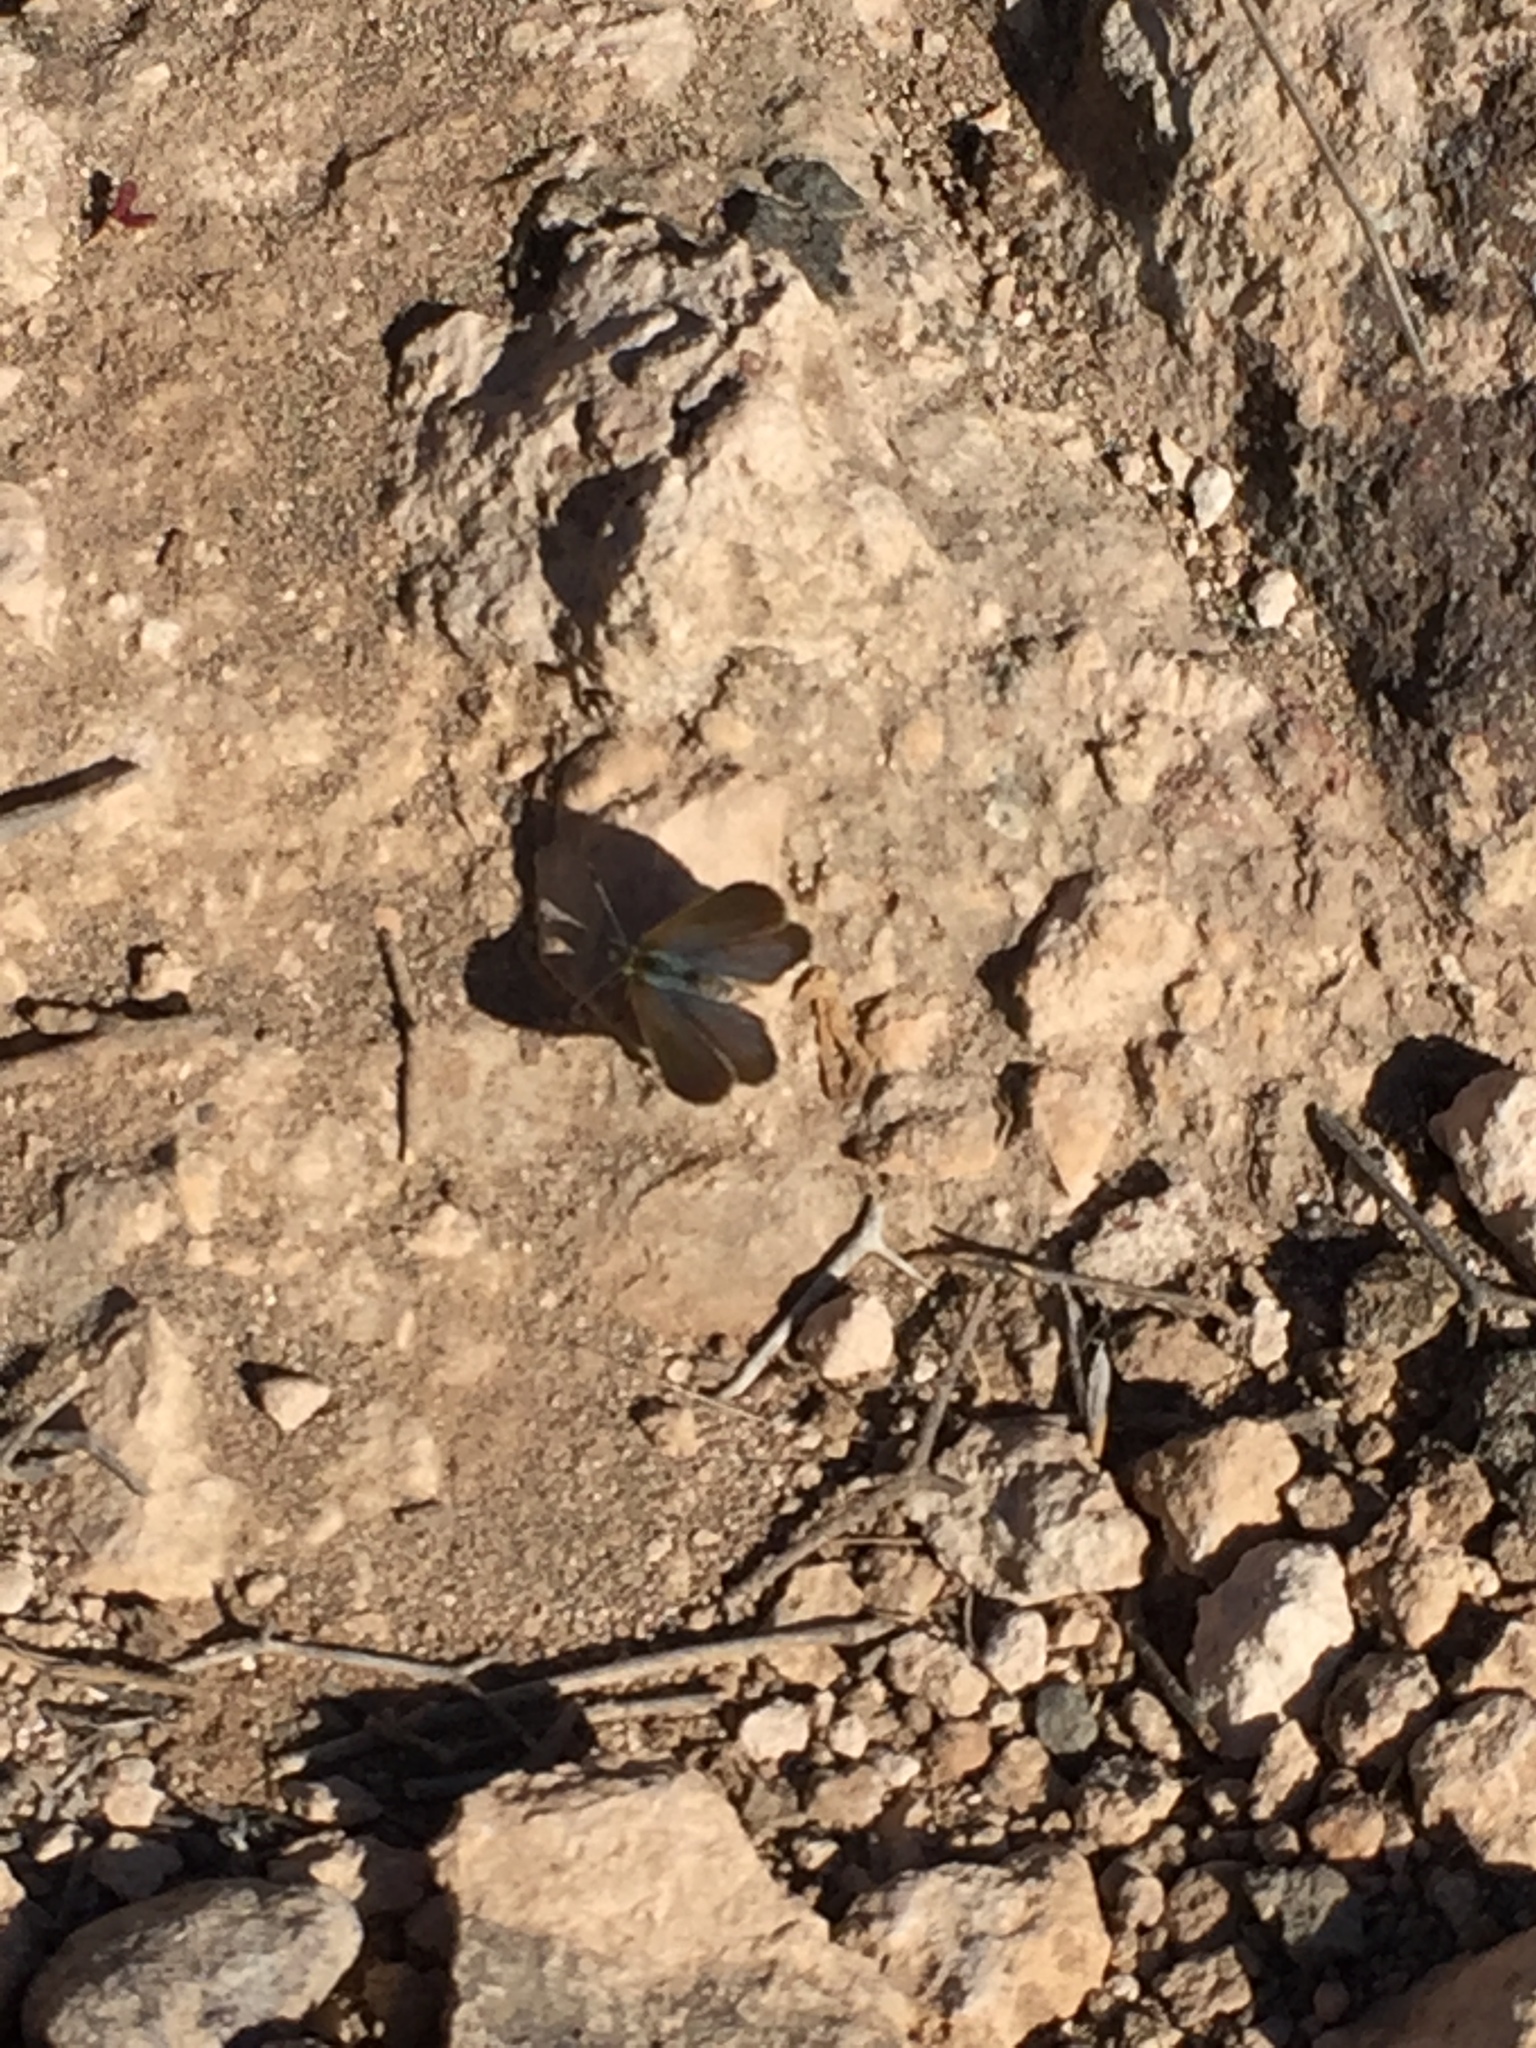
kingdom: Animalia
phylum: Arthropoda
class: Insecta
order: Lepidoptera
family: Lycaenidae
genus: Zizeeria
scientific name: Zizeeria knysna
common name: African grass blue
